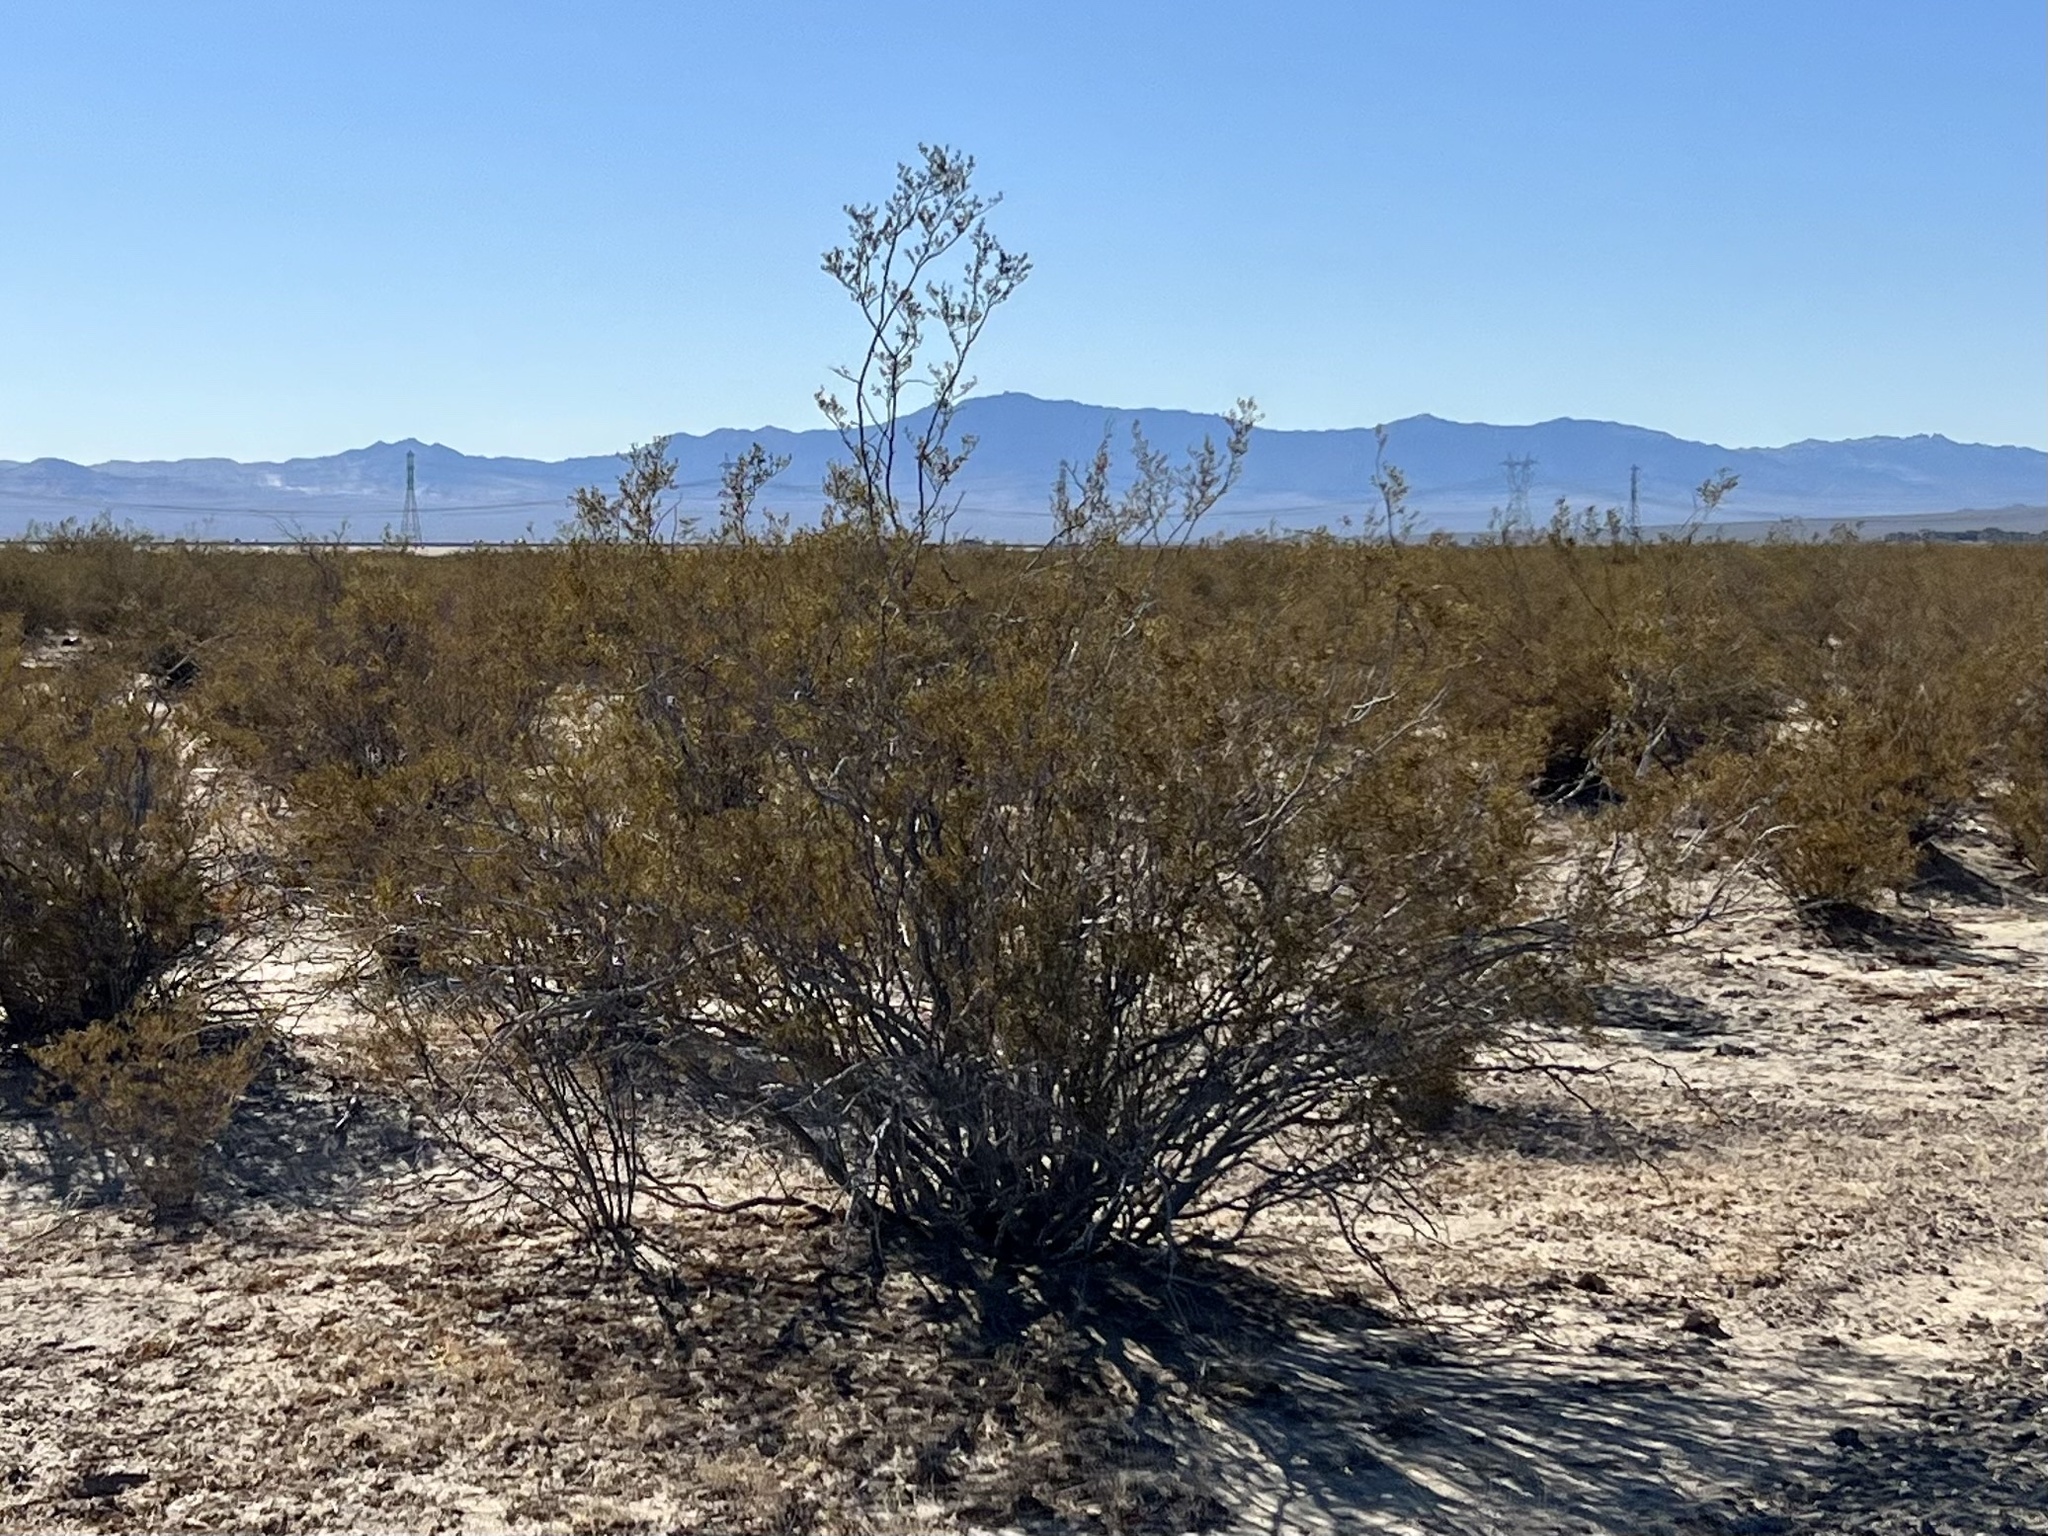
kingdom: Plantae
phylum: Tracheophyta
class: Magnoliopsida
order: Zygophyllales
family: Zygophyllaceae
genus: Larrea
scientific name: Larrea tridentata
